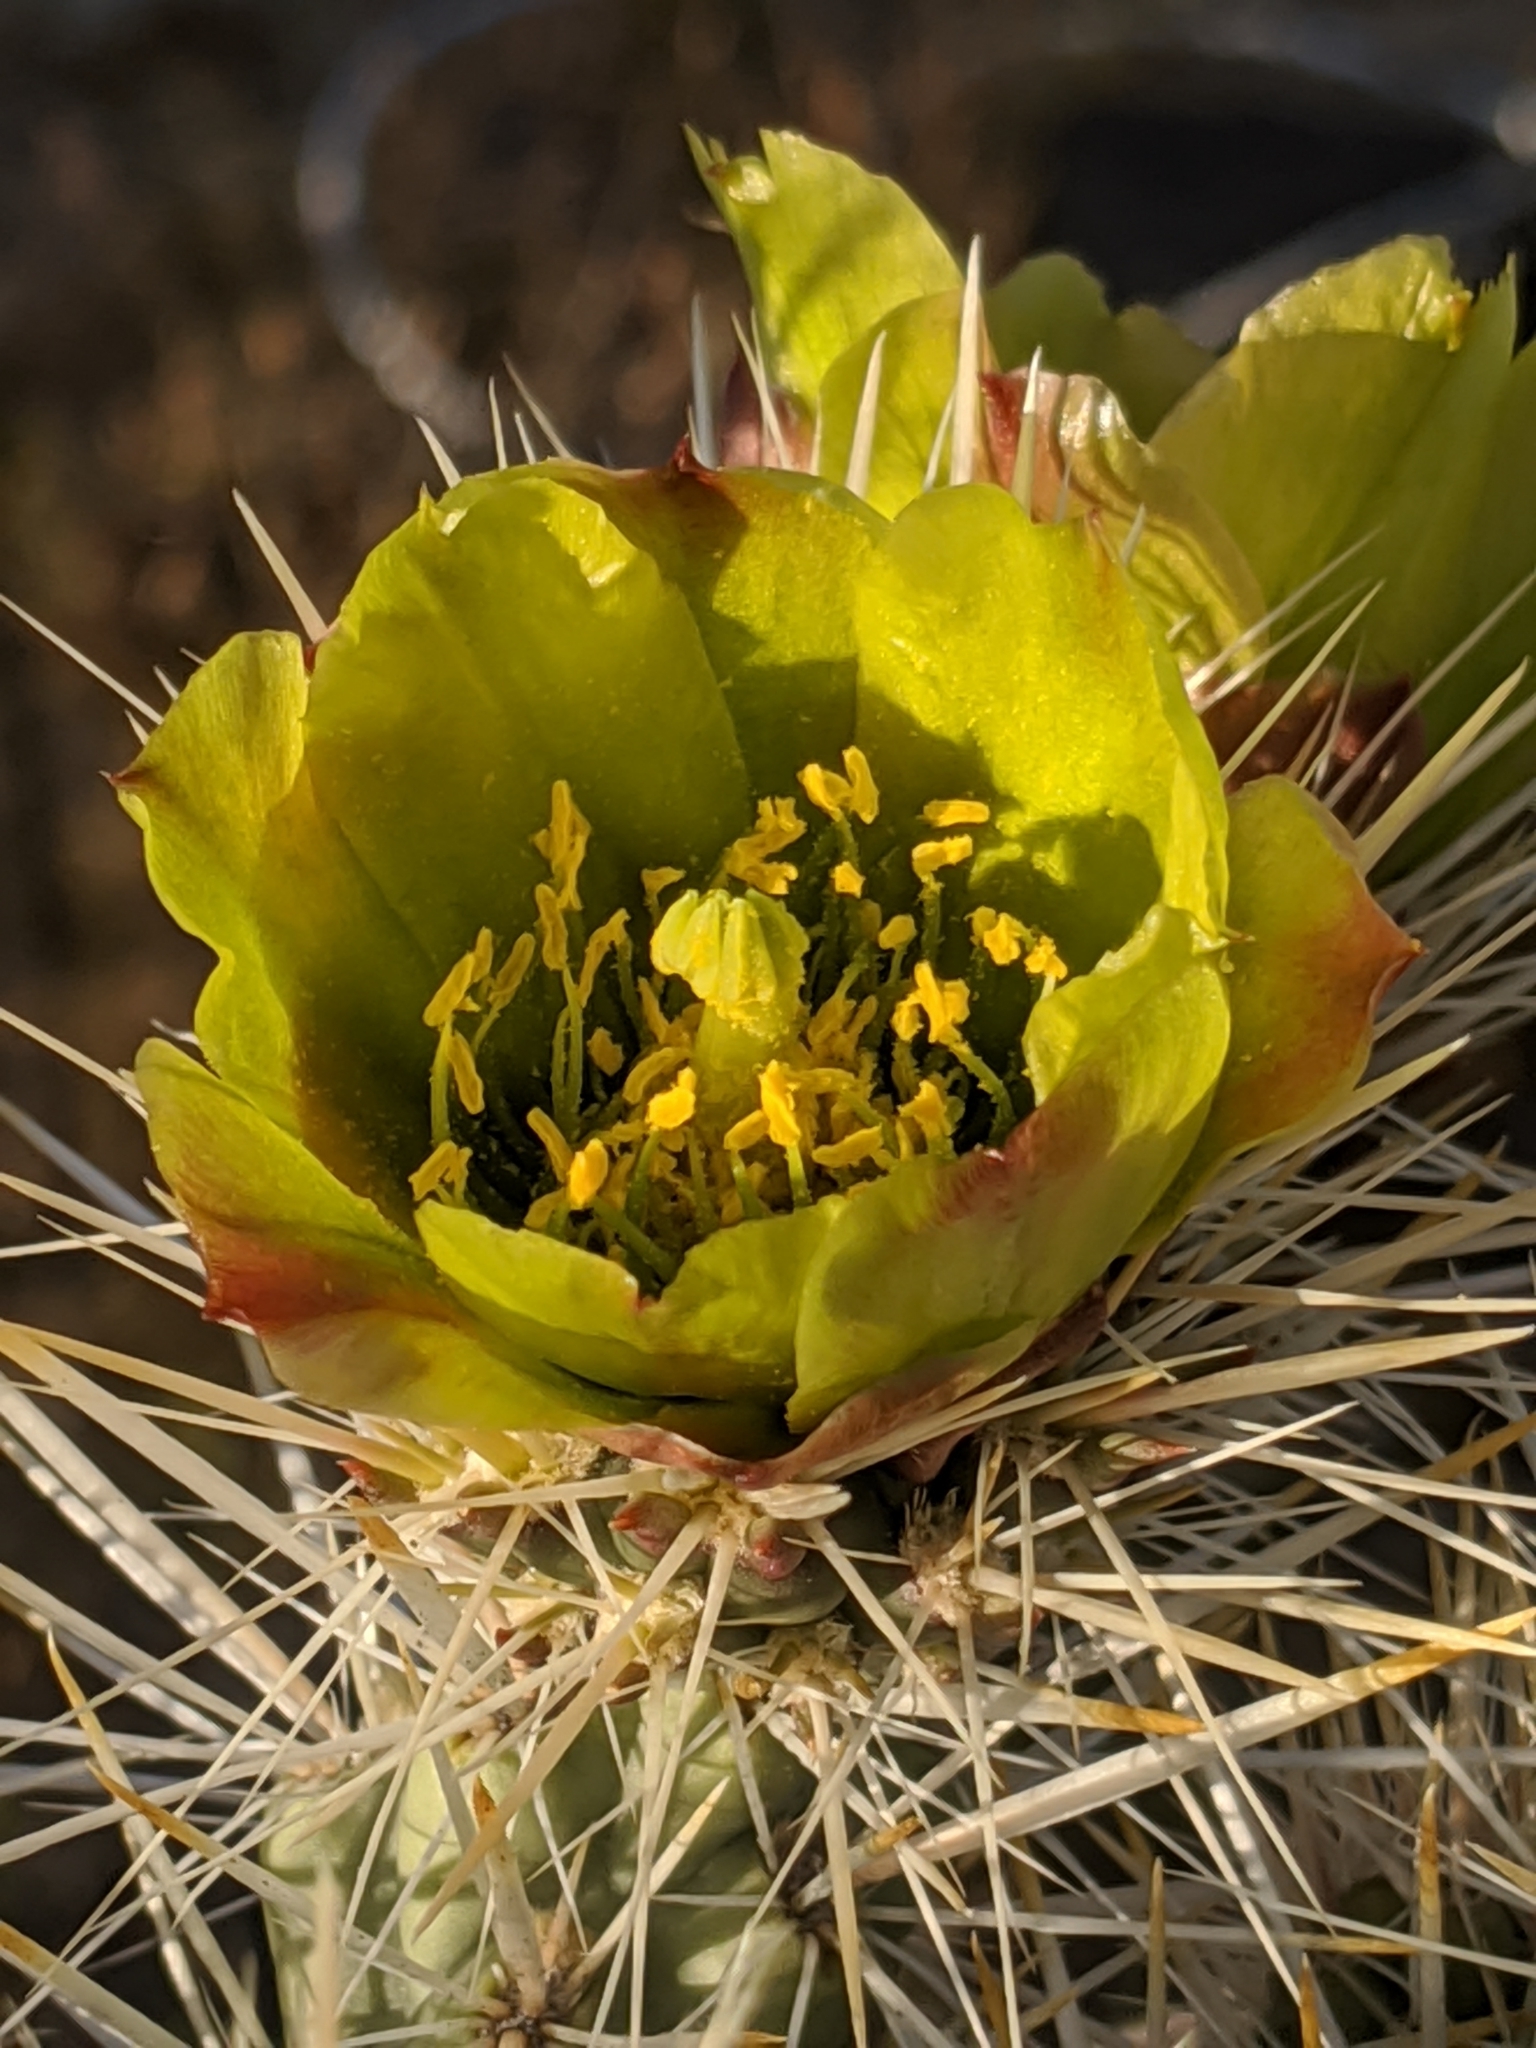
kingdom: Plantae
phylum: Tracheophyta
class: Magnoliopsida
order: Caryophyllales
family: Cactaceae
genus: Cylindropuntia
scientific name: Cylindropuntia echinocarpa
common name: Ground cholla
